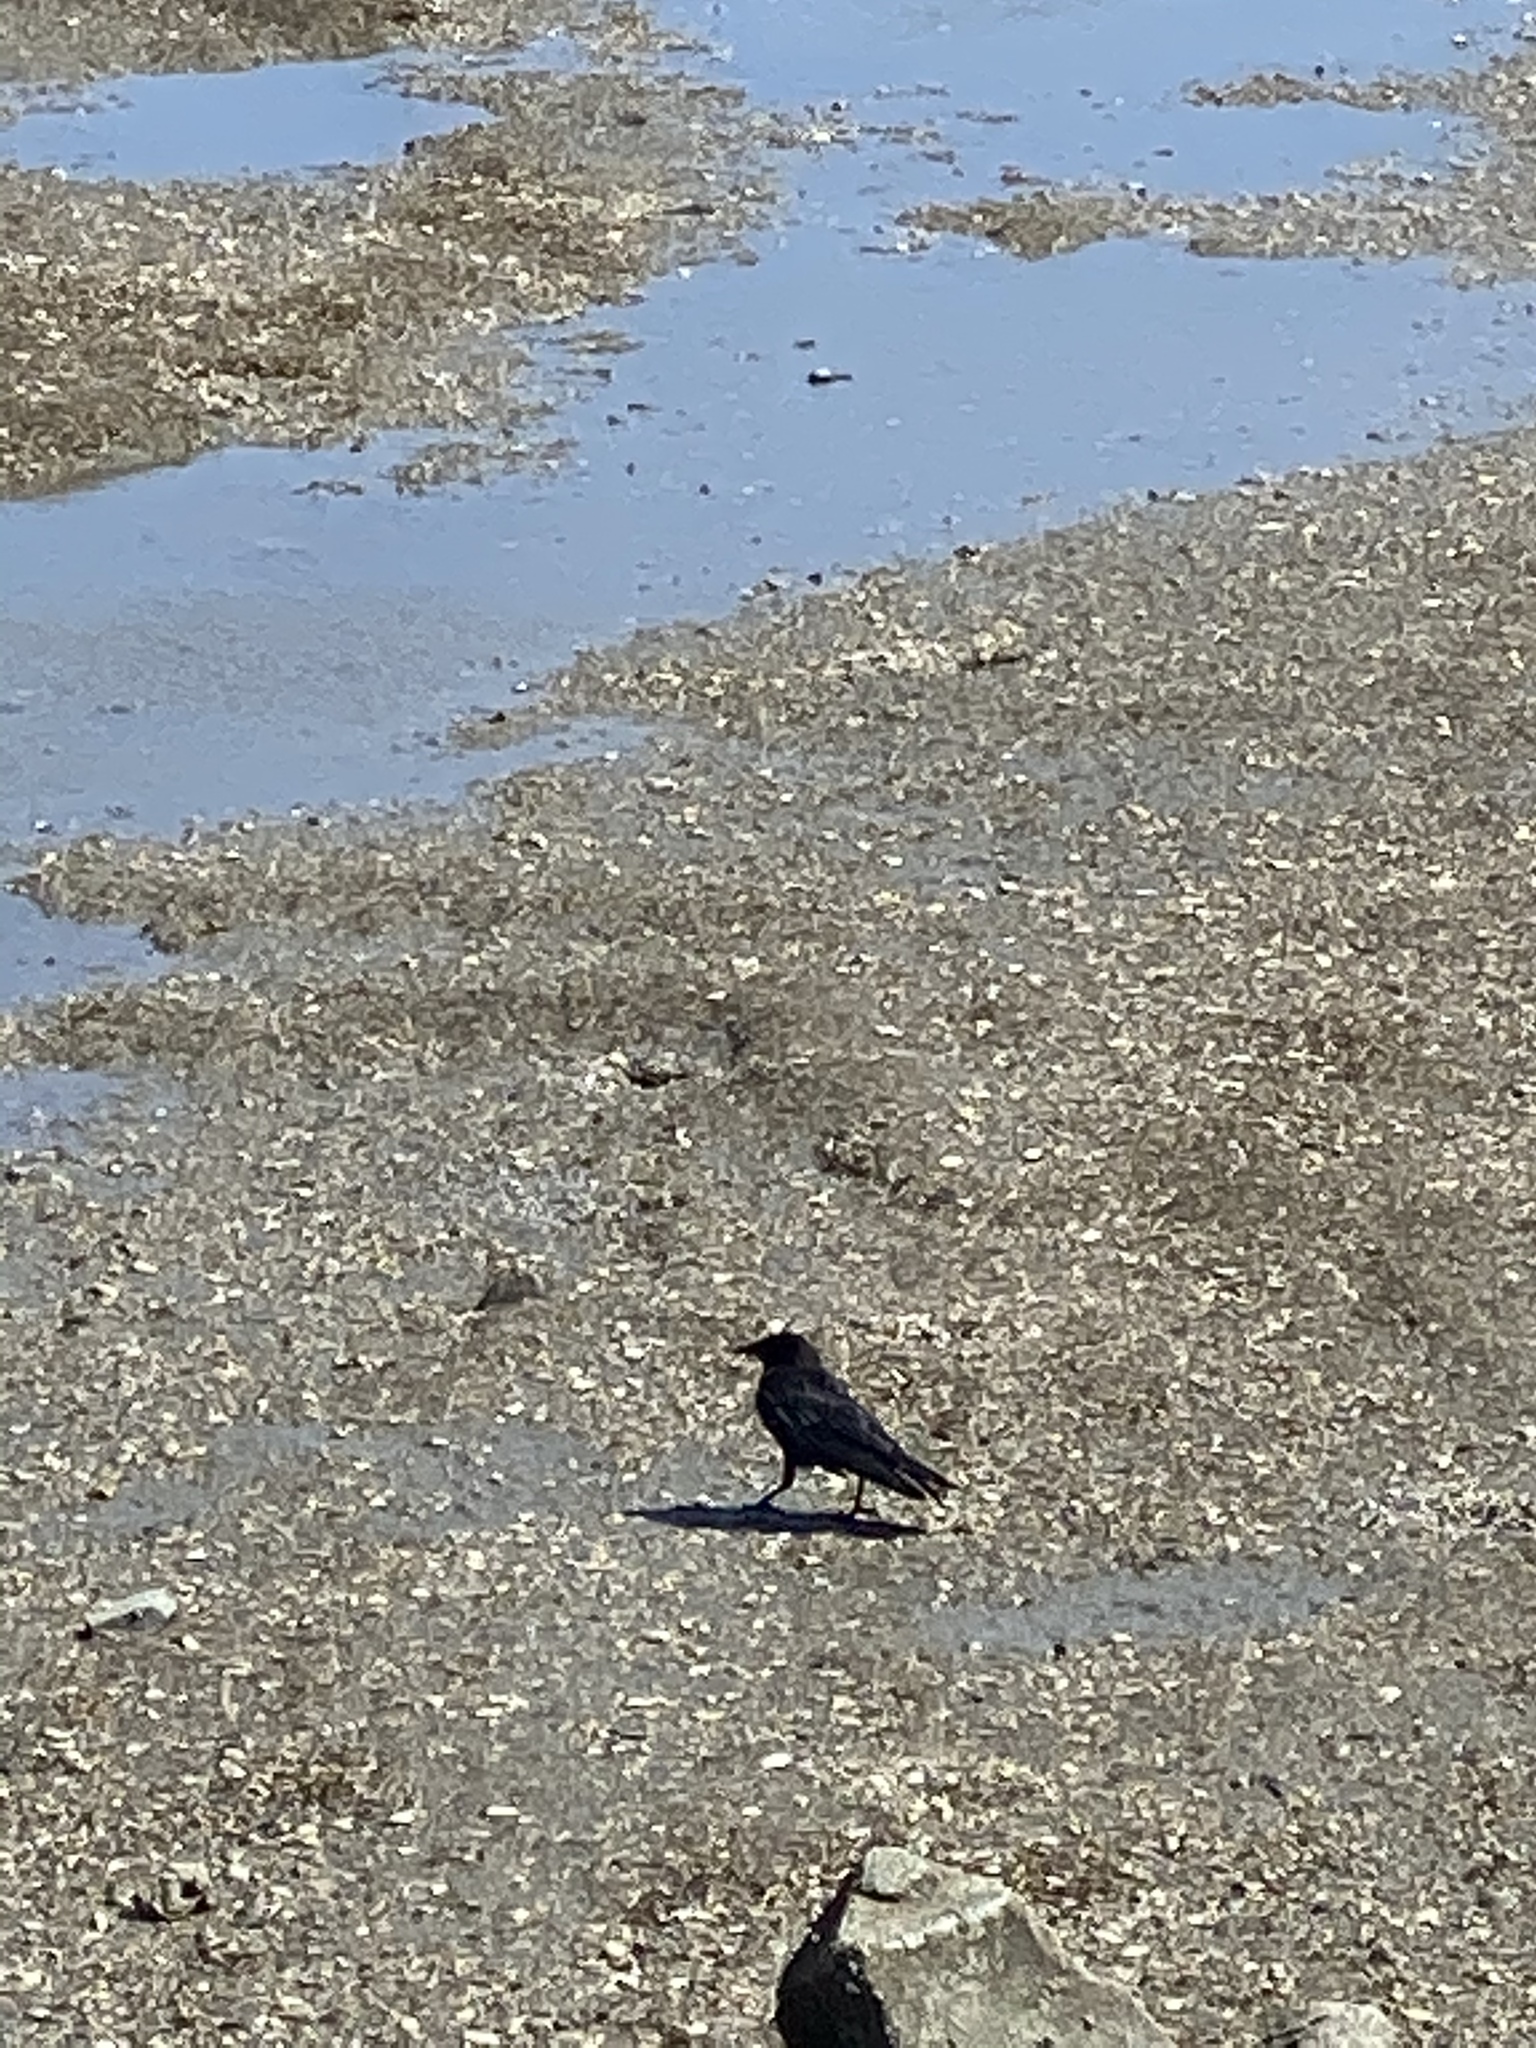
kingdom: Animalia
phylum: Chordata
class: Aves
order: Passeriformes
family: Corvidae
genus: Corvus
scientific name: Corvus brachyrhynchos
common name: American crow
